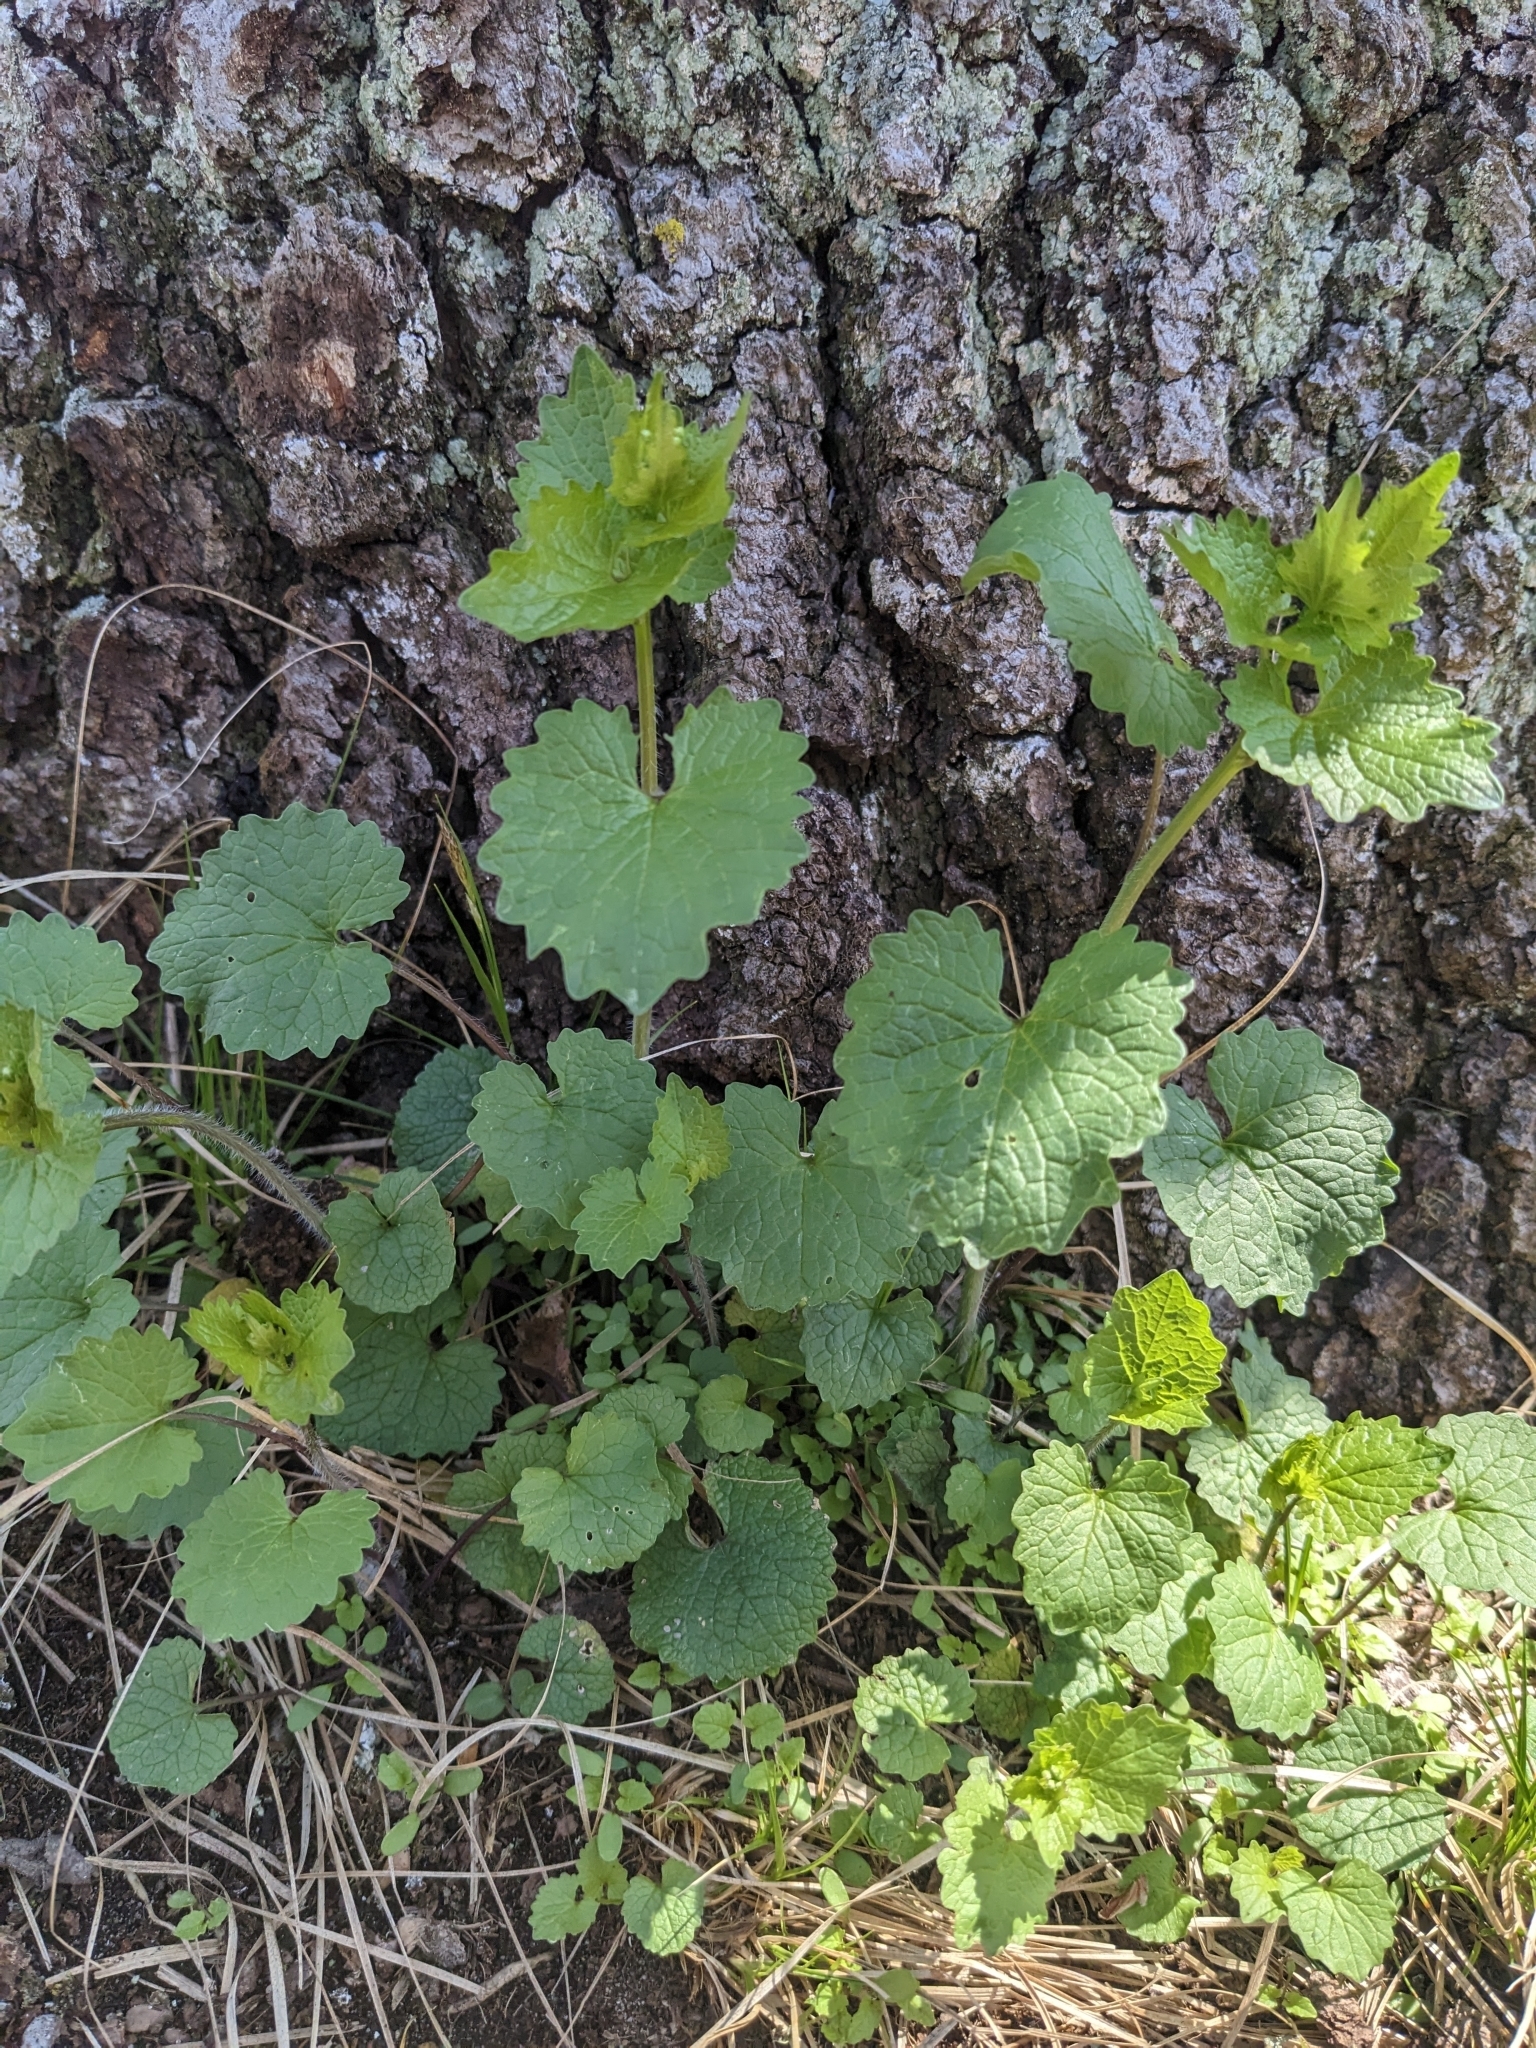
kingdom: Plantae
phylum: Tracheophyta
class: Magnoliopsida
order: Brassicales
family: Brassicaceae
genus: Alliaria
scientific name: Alliaria petiolata
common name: Garlic mustard
